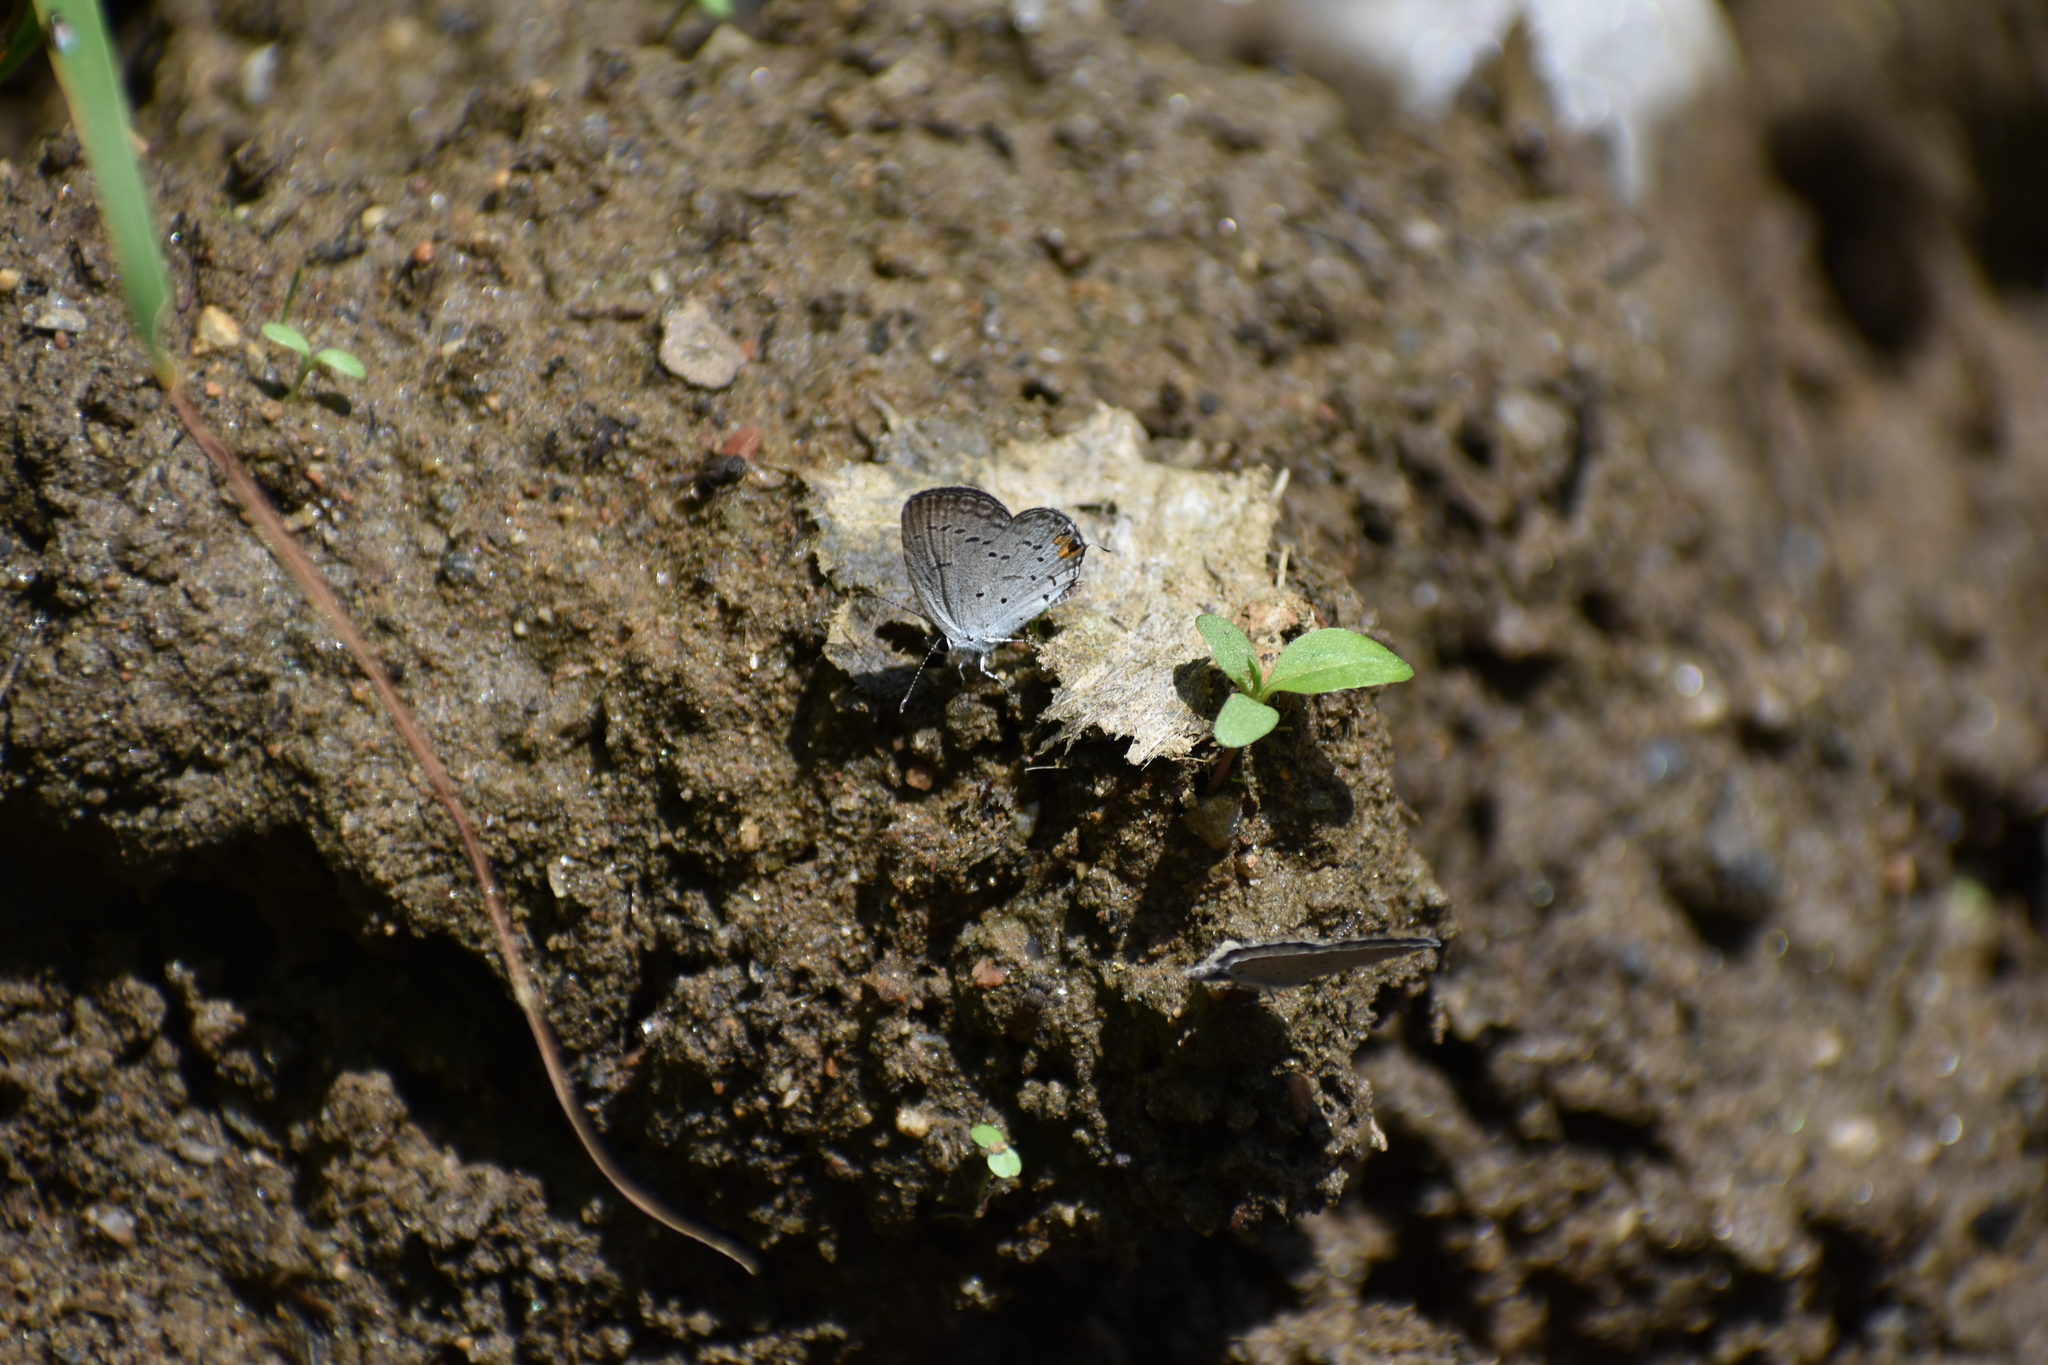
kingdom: Animalia
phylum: Arthropoda
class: Insecta
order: Lepidoptera
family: Lycaenidae
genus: Elkalyce
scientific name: Elkalyce comyntas
